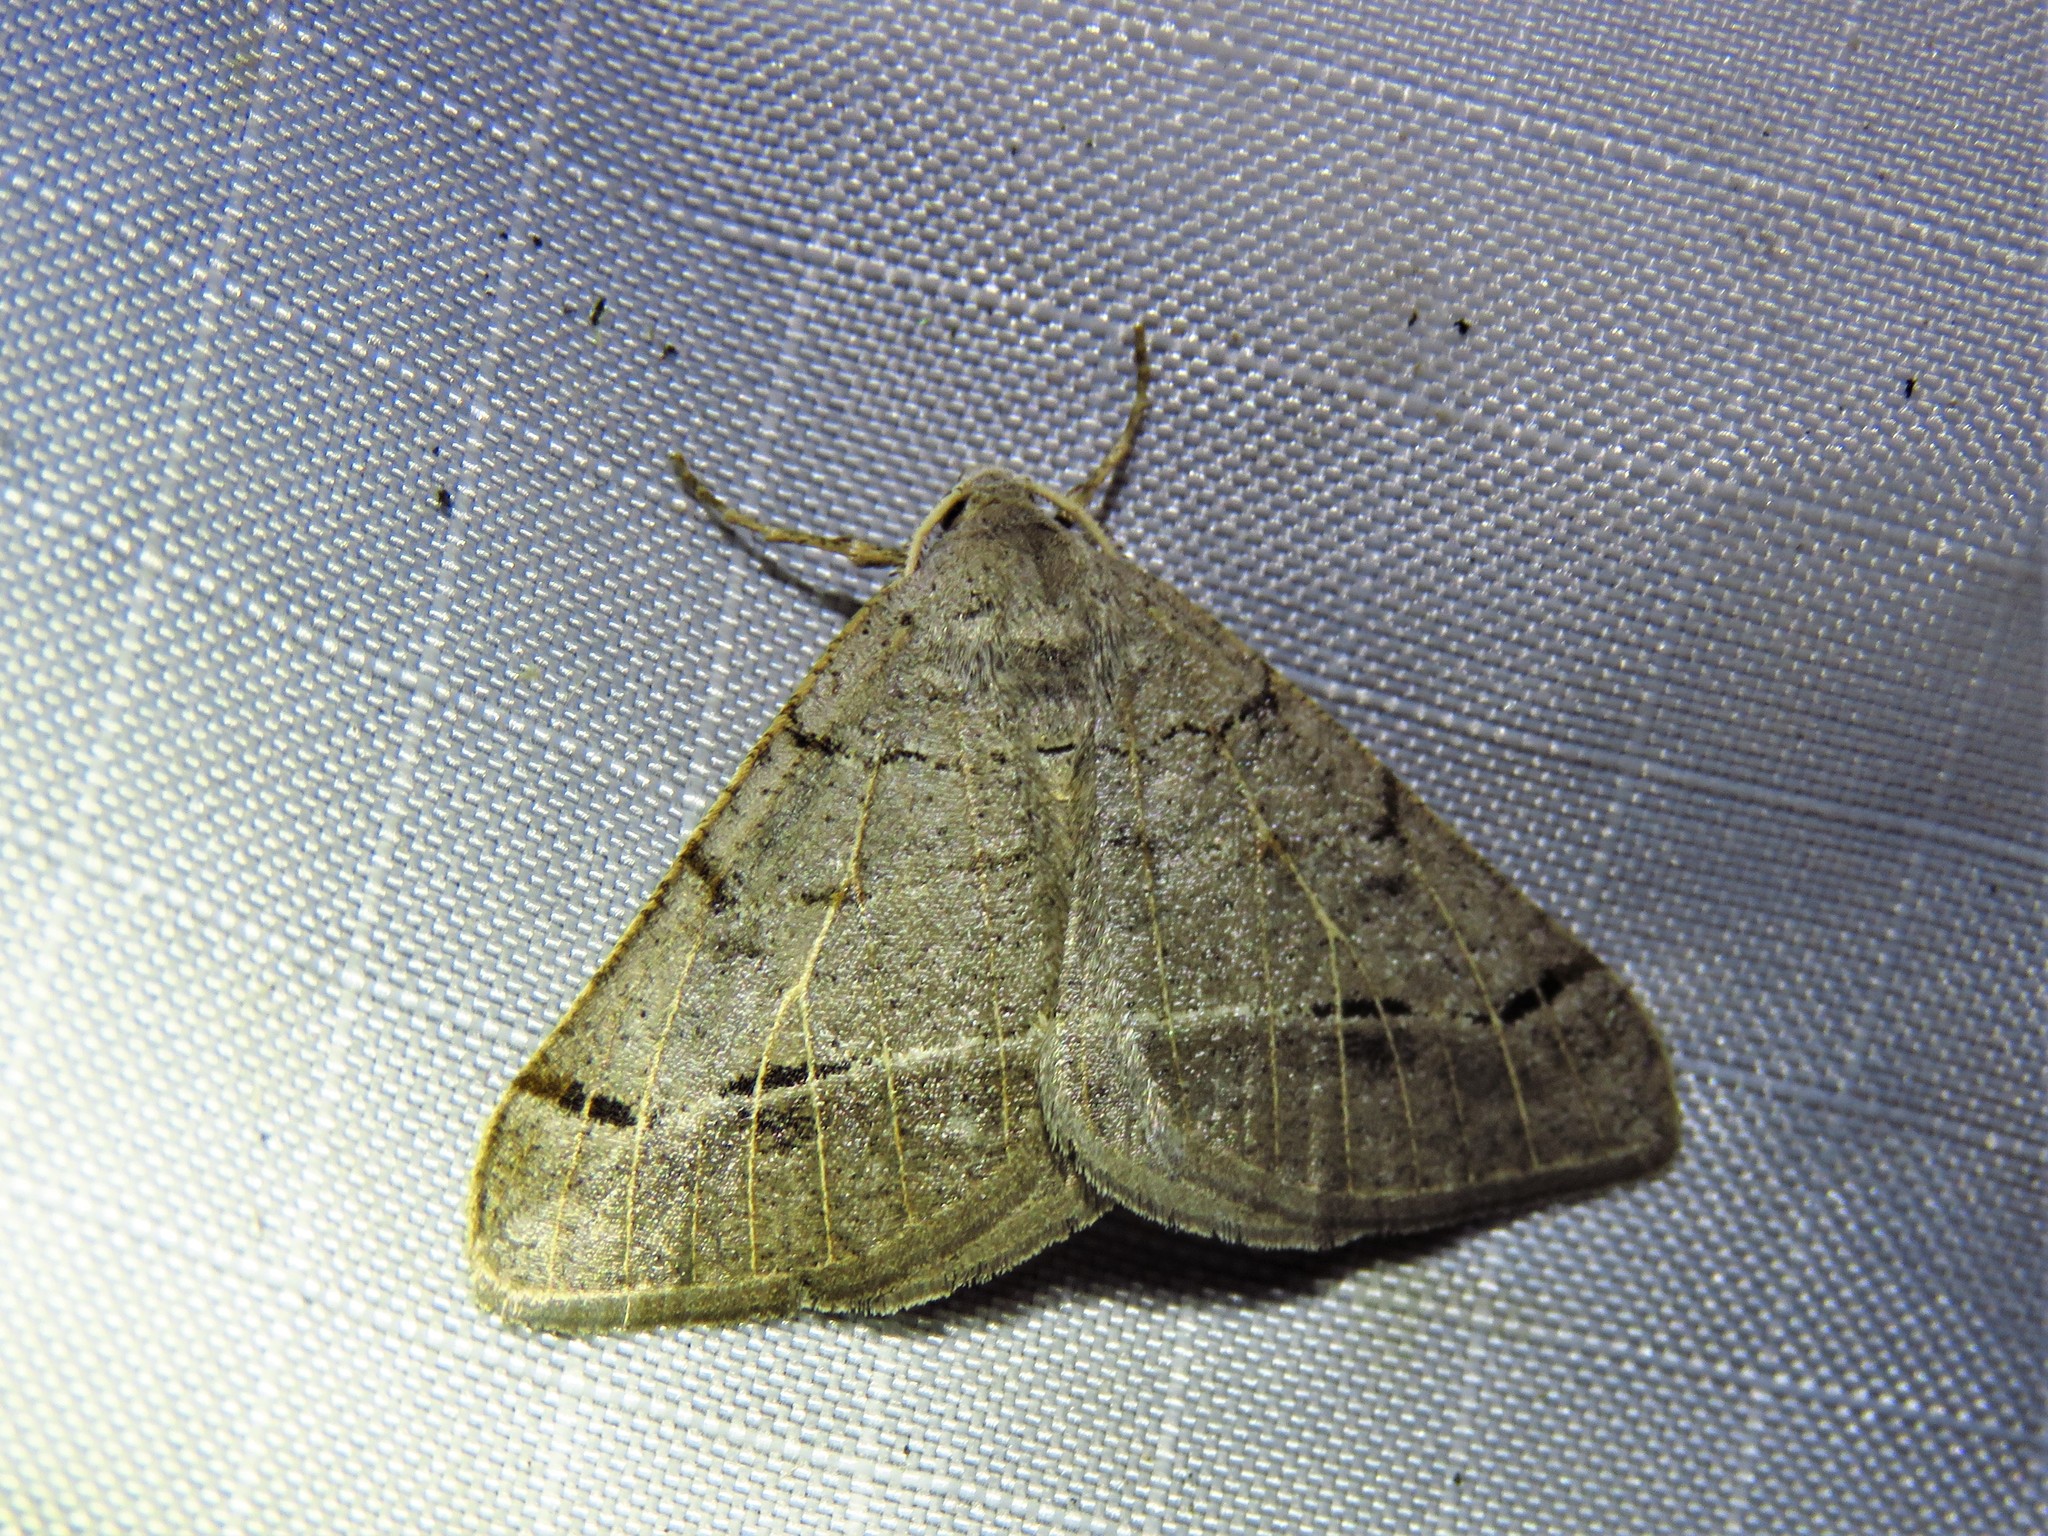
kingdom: Animalia
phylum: Arthropoda
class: Insecta
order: Lepidoptera
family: Geometridae
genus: Isturgia
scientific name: Isturgia dislocaria
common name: Pale-viened enconista
